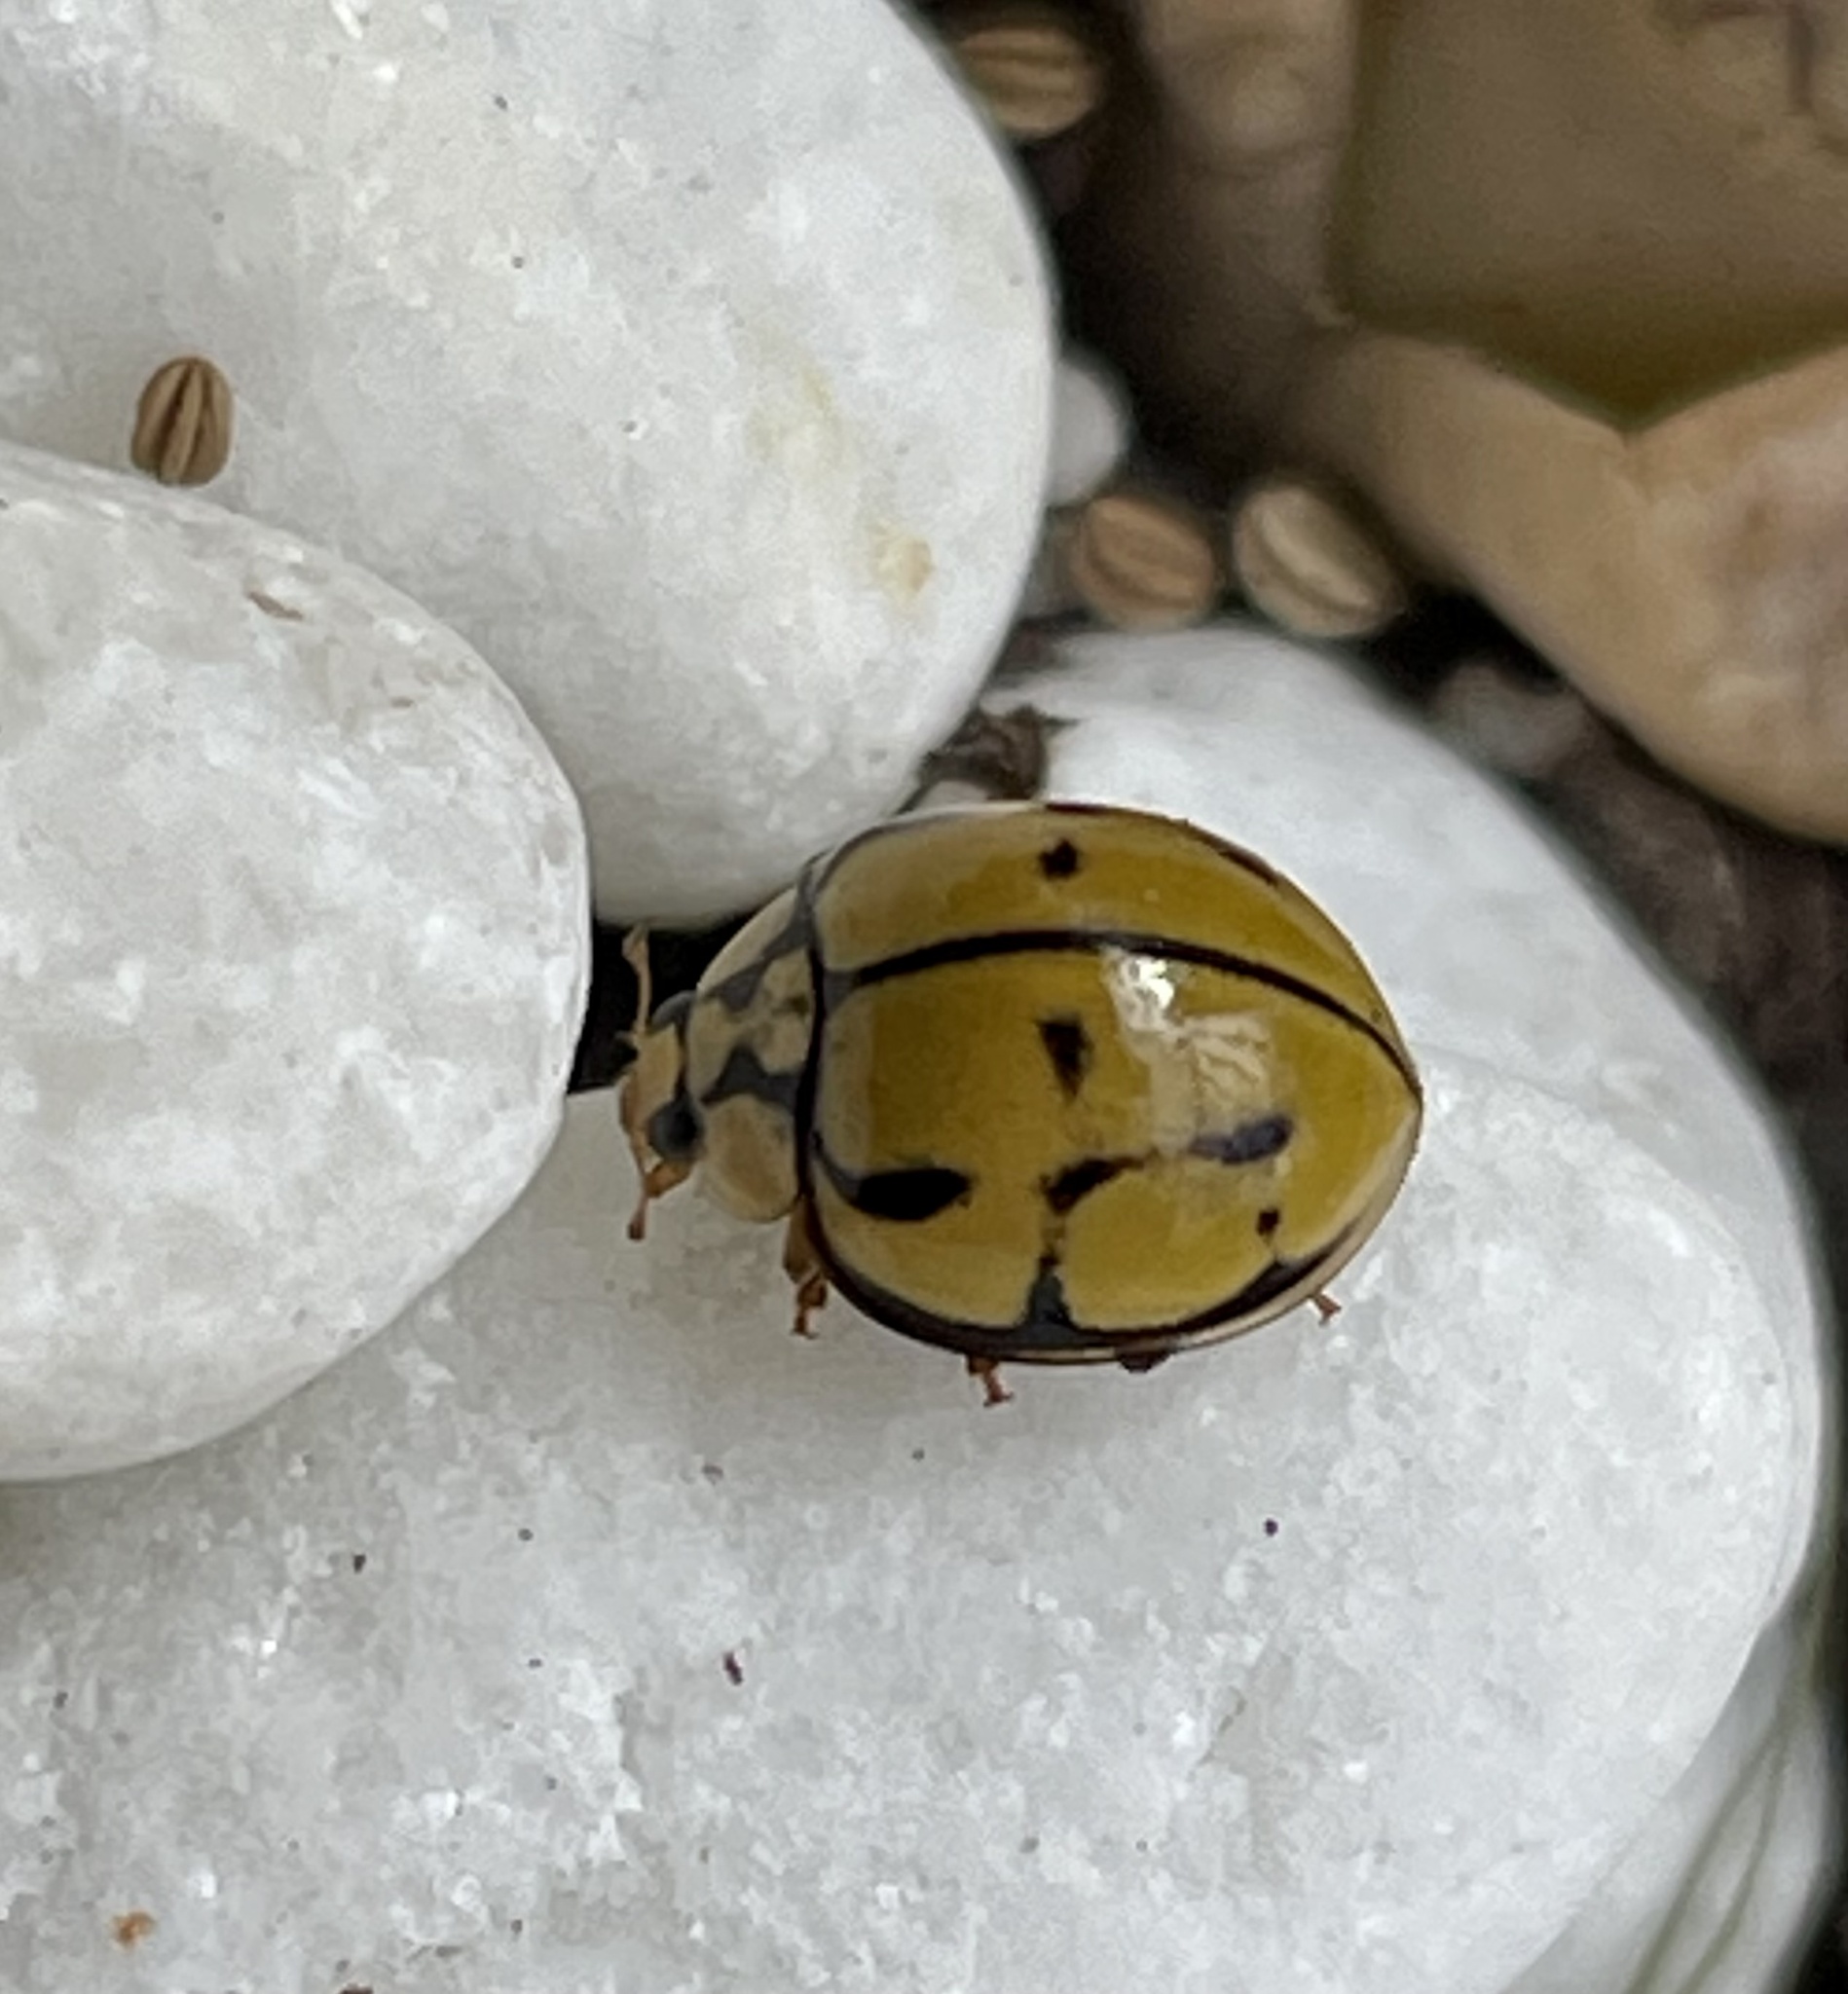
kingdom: Animalia
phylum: Arthropoda
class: Insecta
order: Coleoptera
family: Coccinellidae
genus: Harmonia
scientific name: Harmonia
